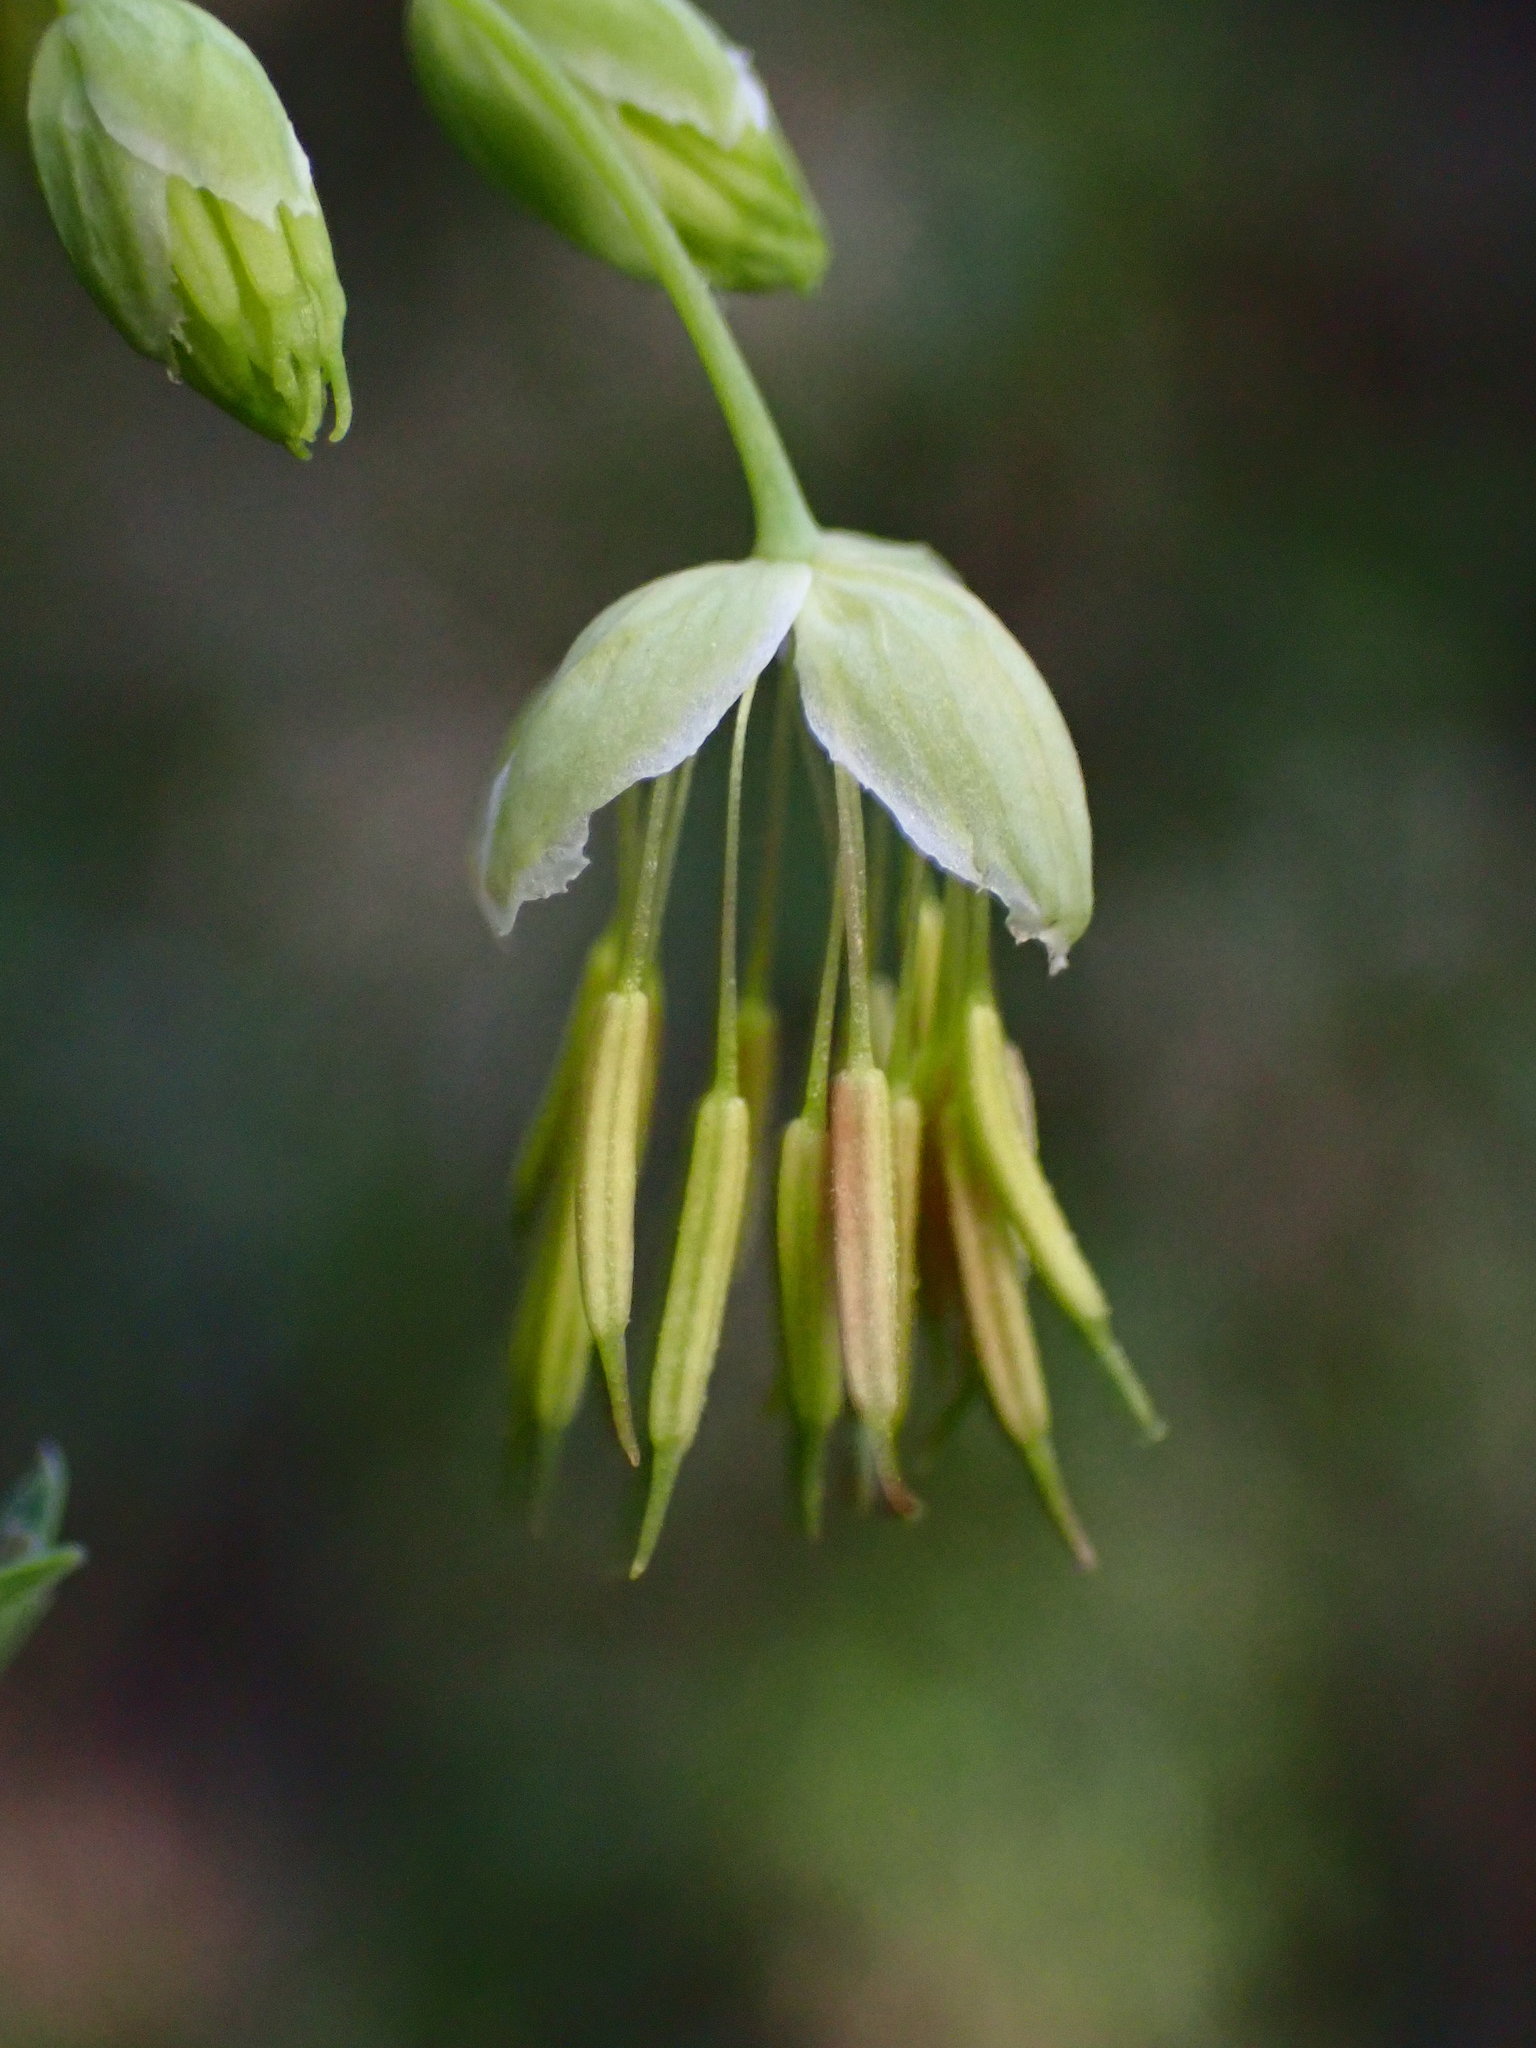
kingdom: Plantae
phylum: Tracheophyta
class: Magnoliopsida
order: Ranunculales
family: Ranunculaceae
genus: Thalictrum
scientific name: Thalictrum fendleri
